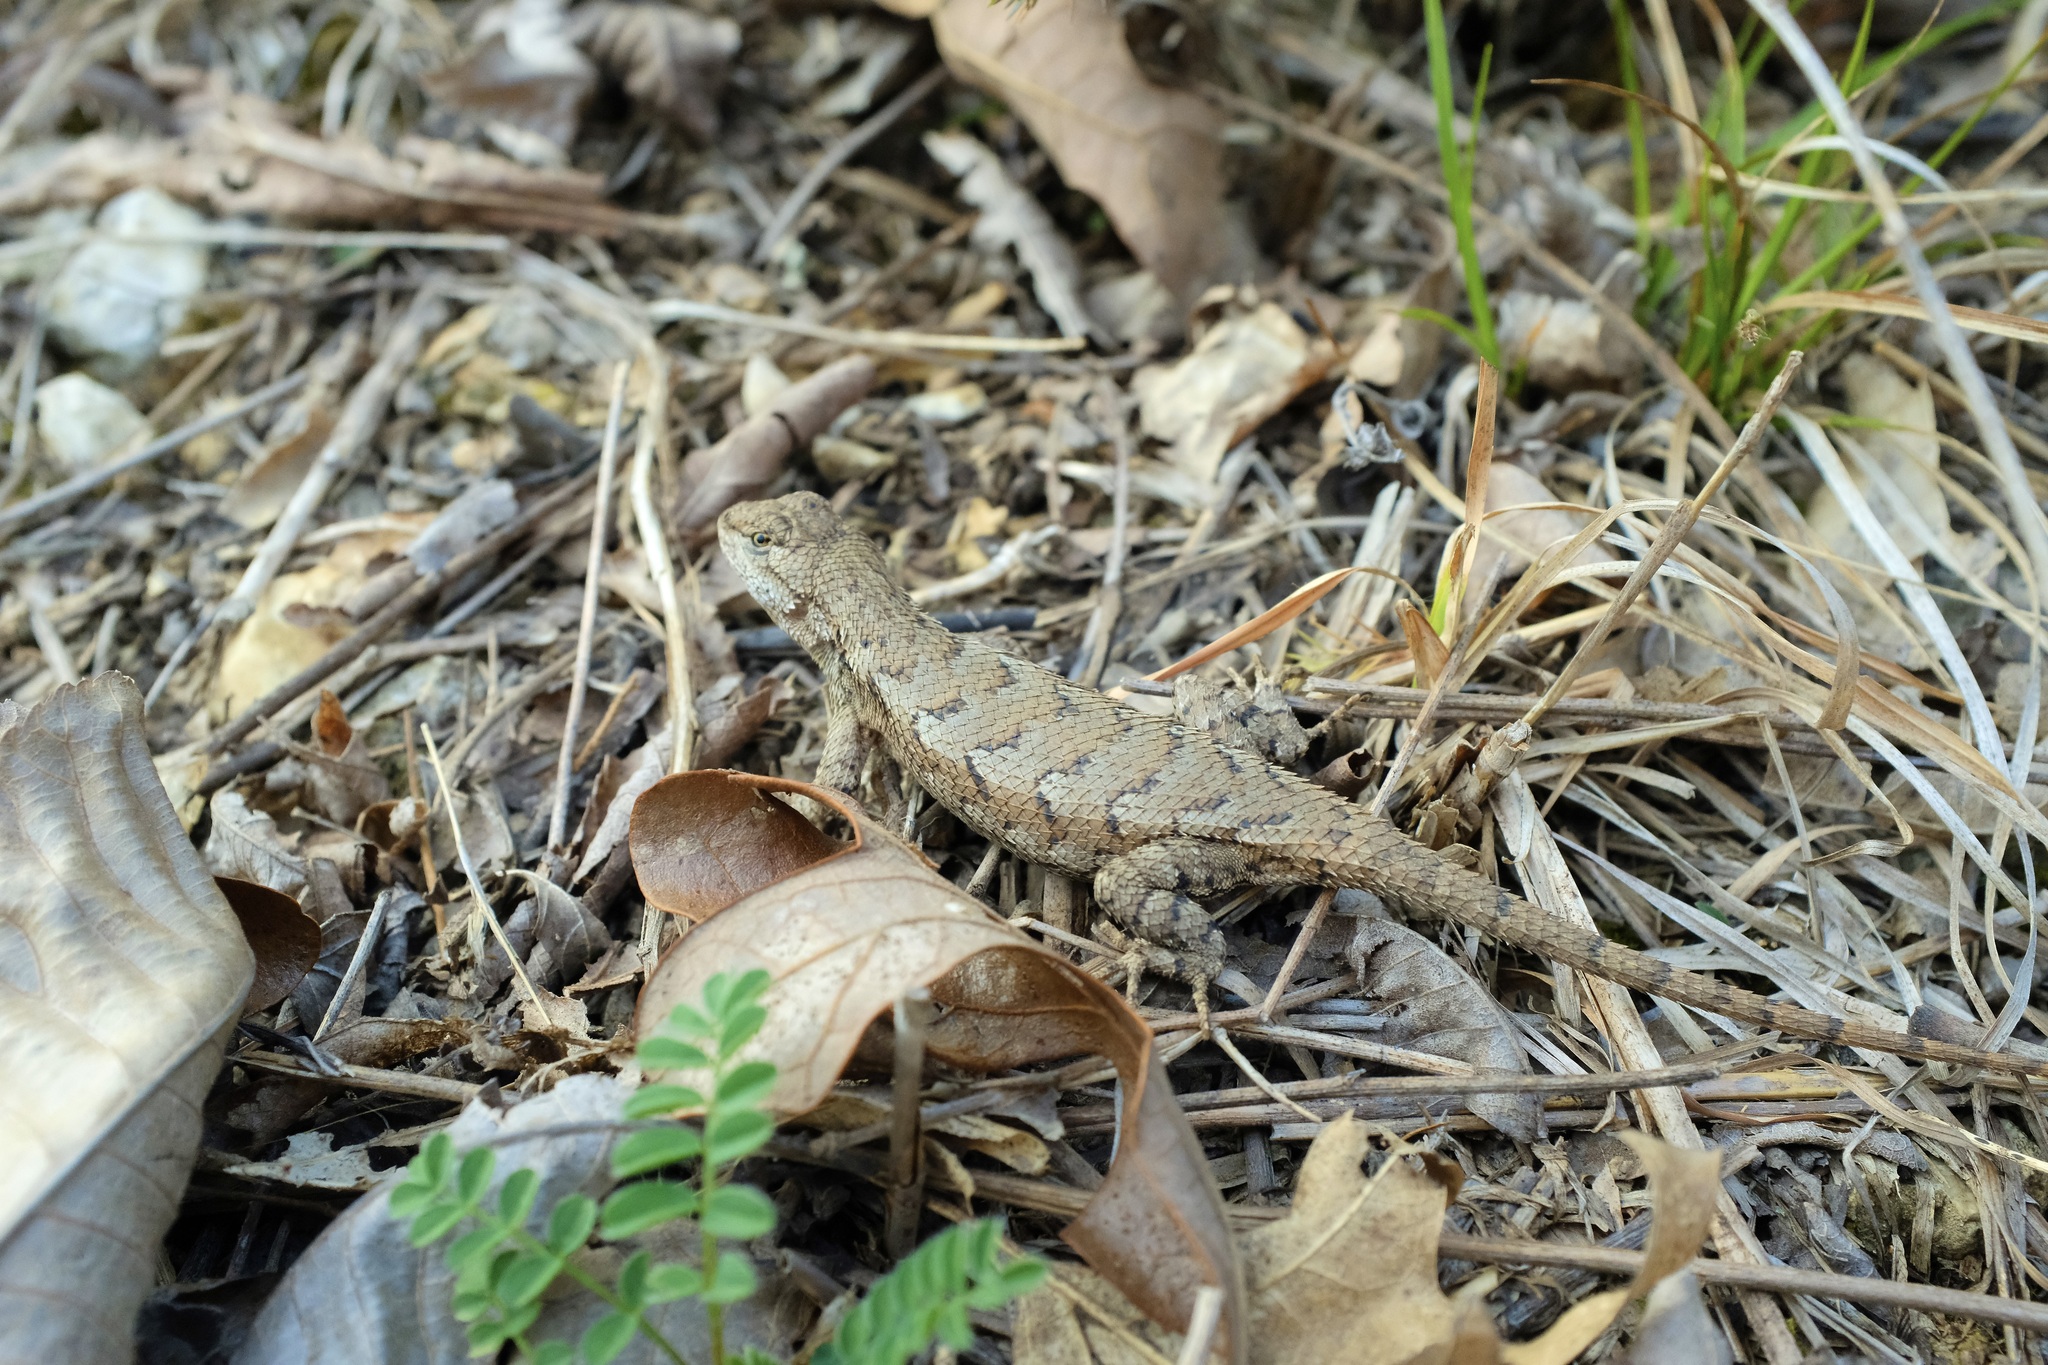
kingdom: Animalia
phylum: Chordata
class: Squamata
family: Phrynosomatidae
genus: Sceloporus
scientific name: Sceloporus consobrinus
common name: Southern prairie lizard
